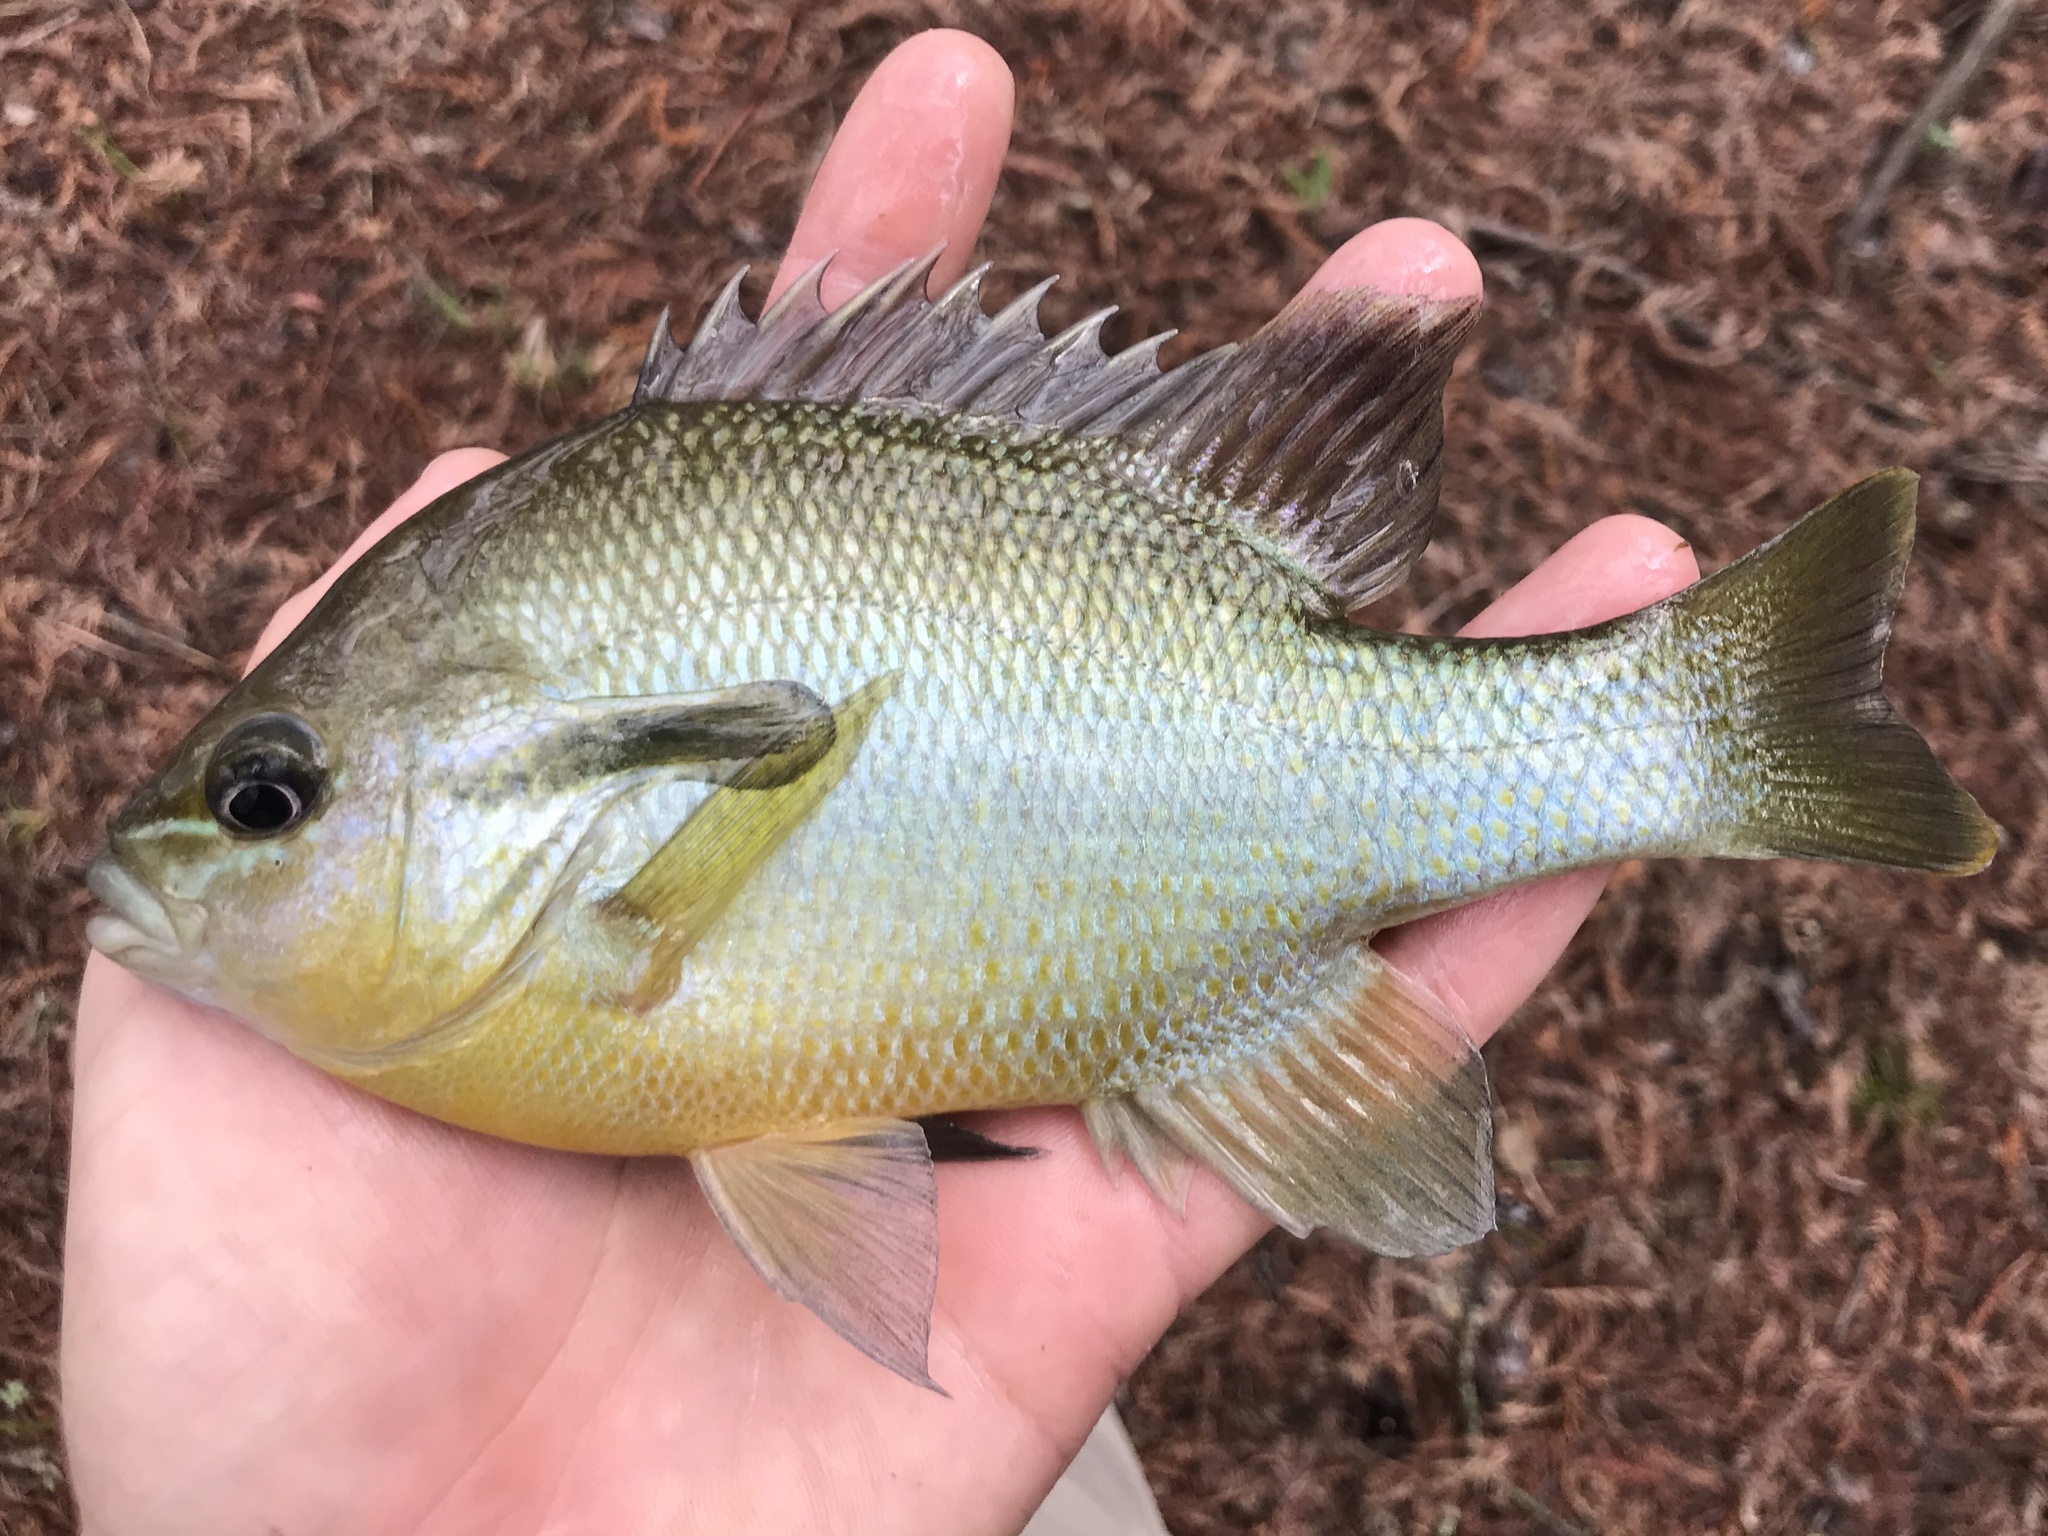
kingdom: Animalia
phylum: Chordata
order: Perciformes
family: Centrarchidae
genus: Lepomis
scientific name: Lepomis auritus
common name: Redbreast sunfish
